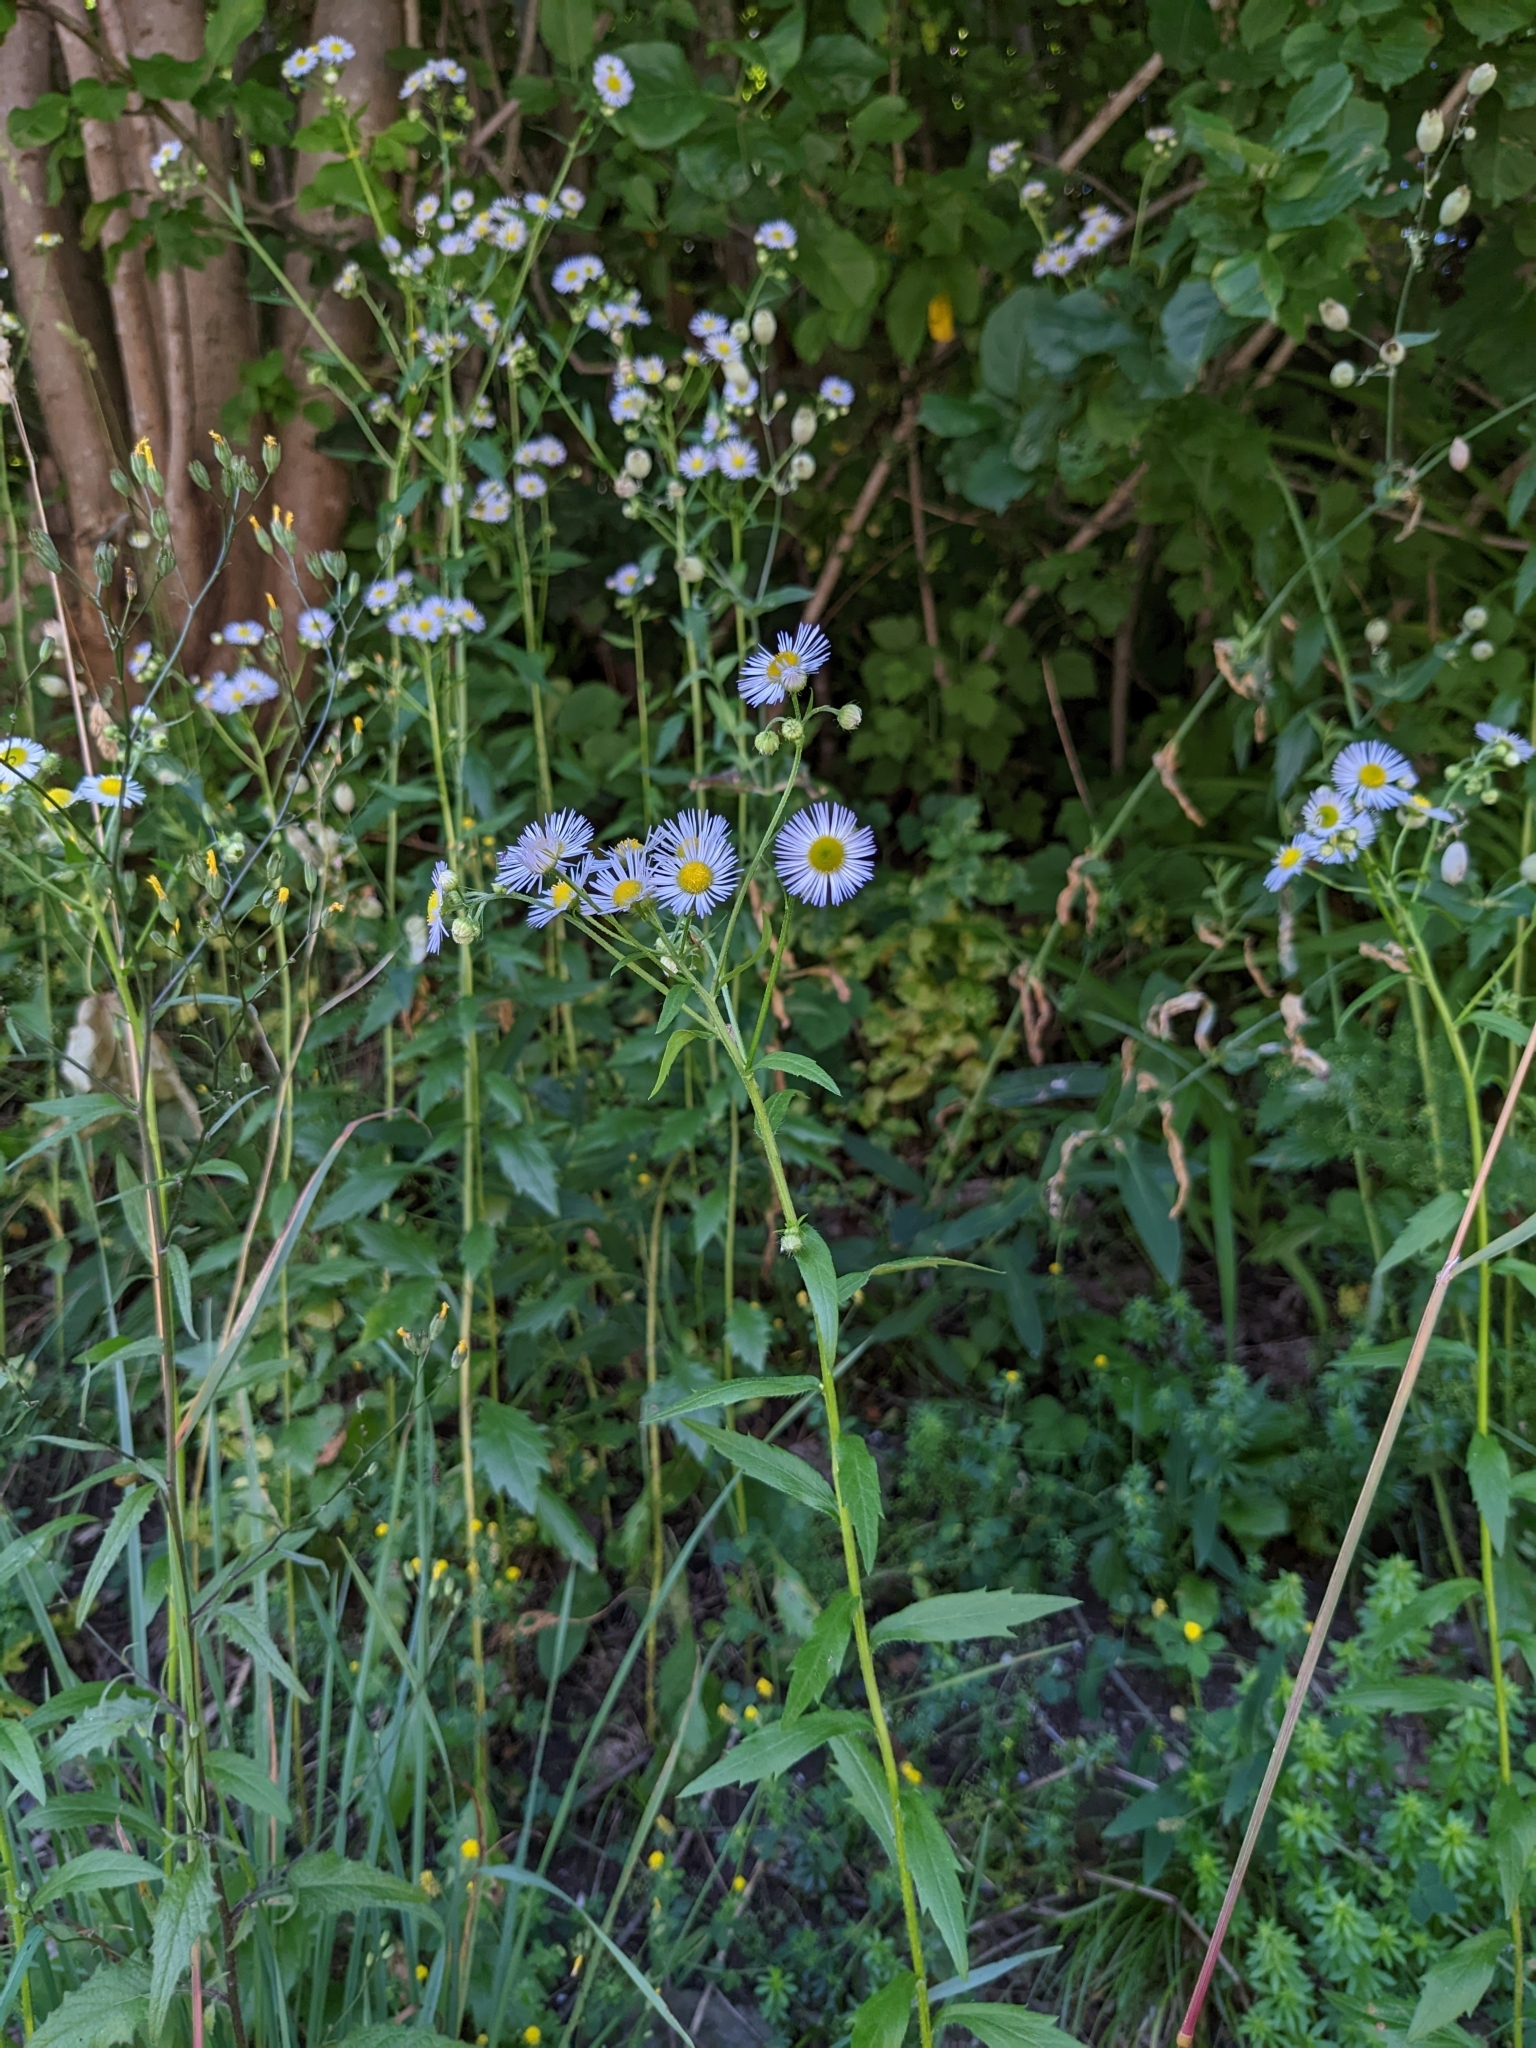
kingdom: Plantae
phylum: Tracheophyta
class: Magnoliopsida
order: Asterales
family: Asteraceae
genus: Erigeron
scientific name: Erigeron annuus
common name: Tall fleabane
